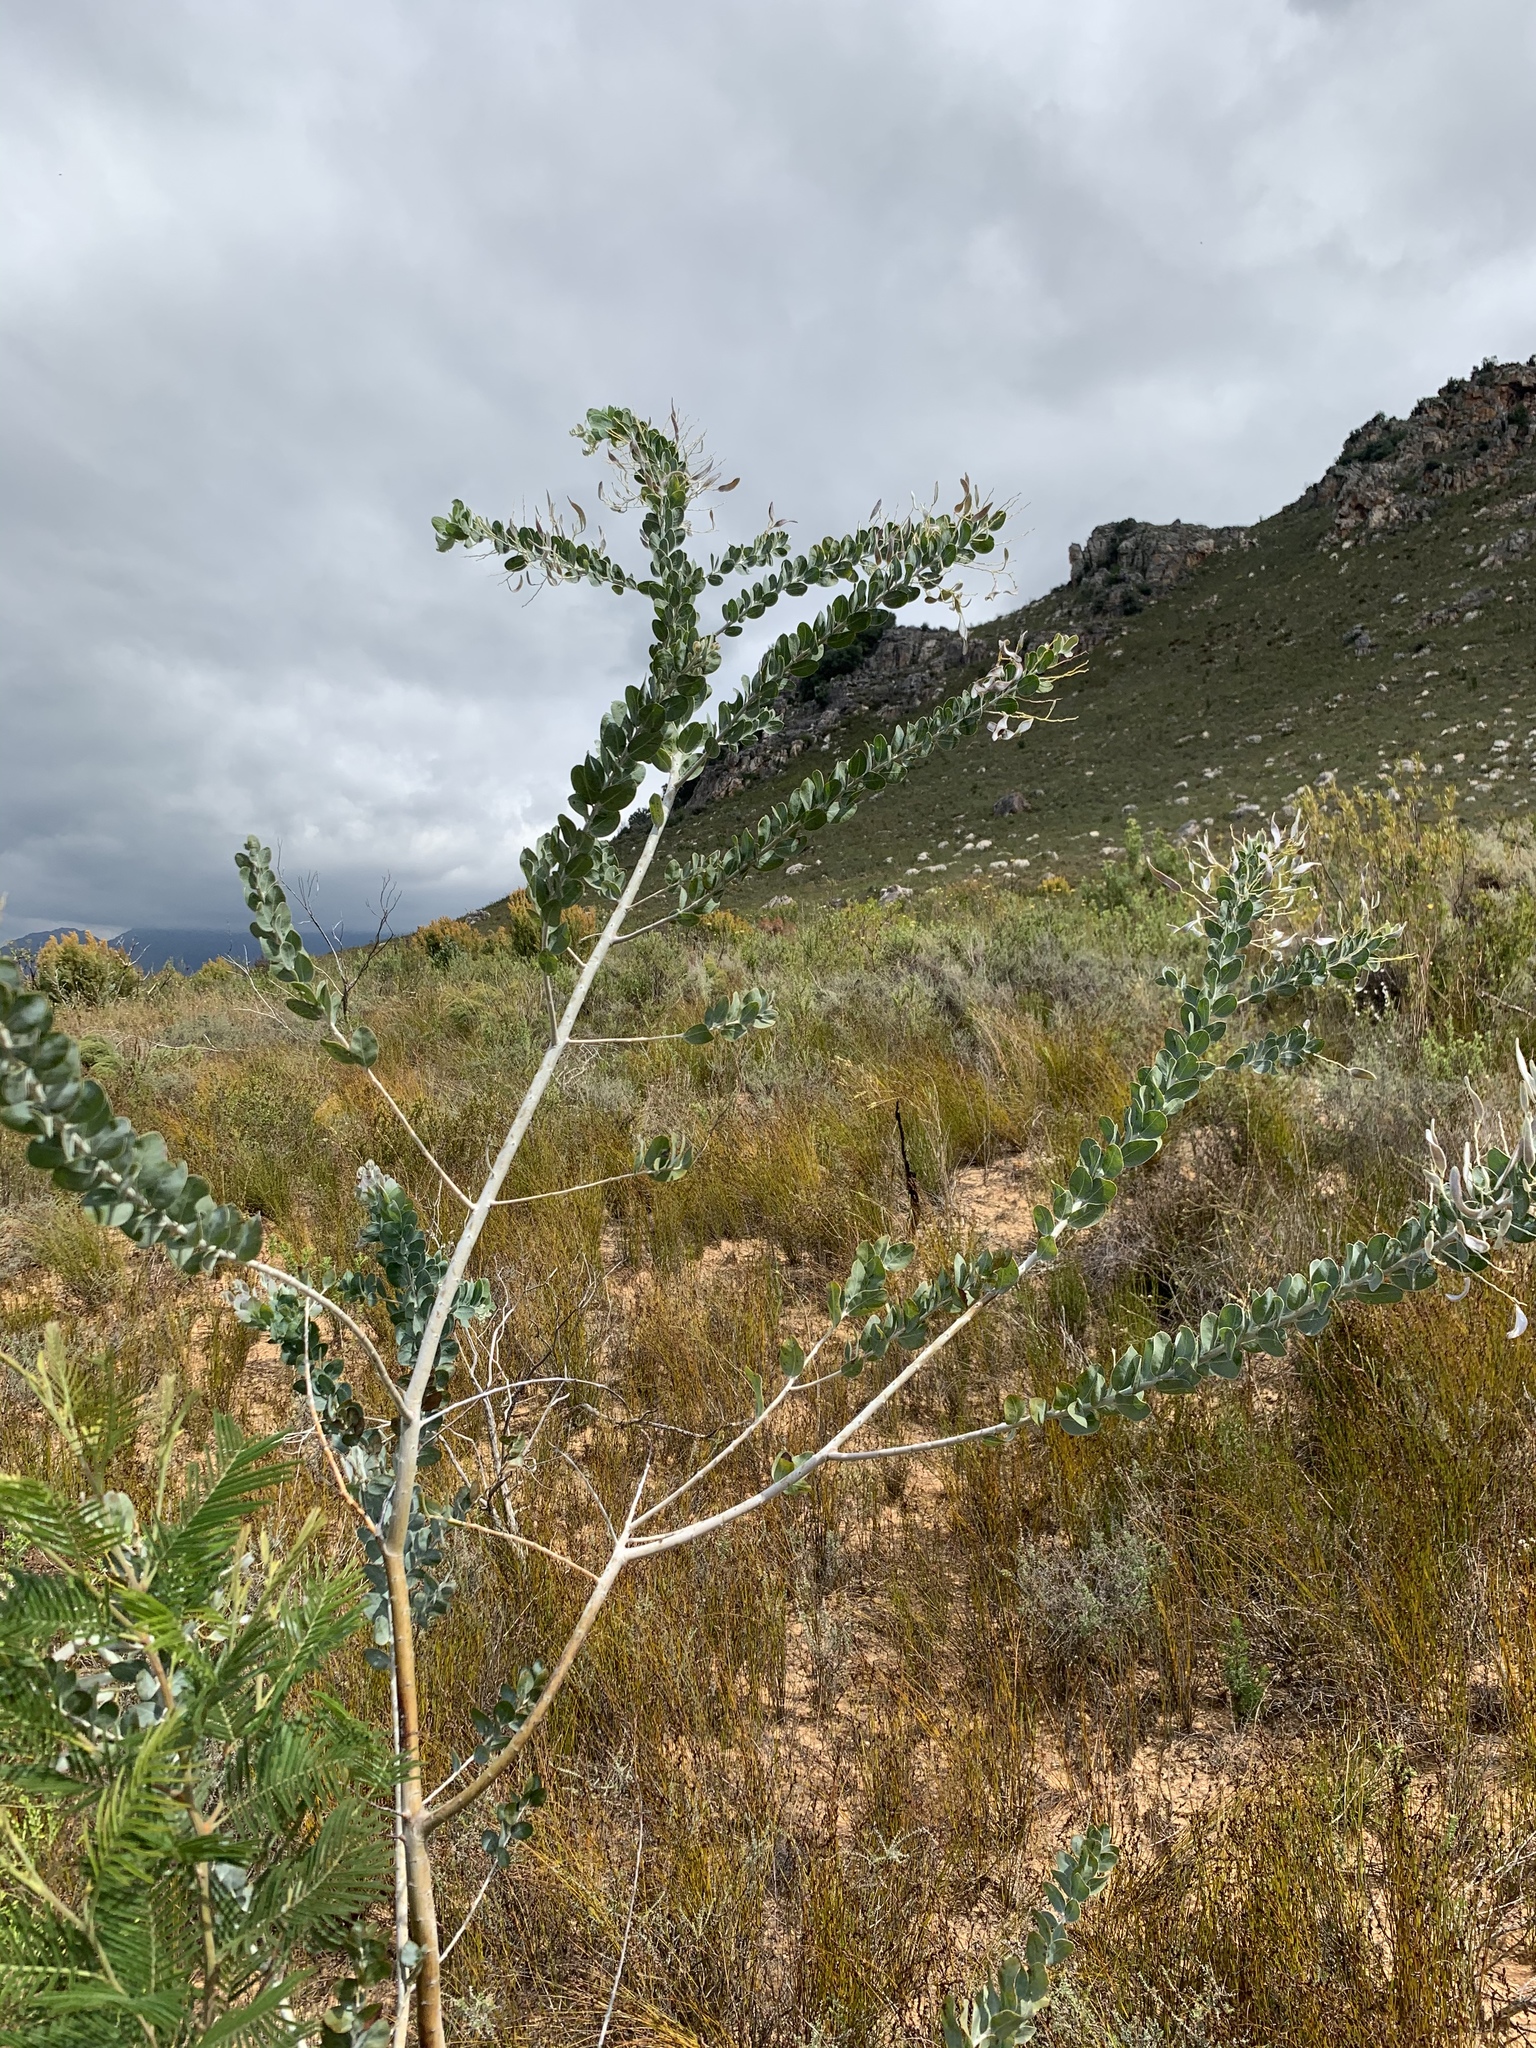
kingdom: Plantae
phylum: Tracheophyta
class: Magnoliopsida
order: Fabales
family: Fabaceae
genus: Acacia
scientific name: Acacia podalyriifolia
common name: Pearl wattle
